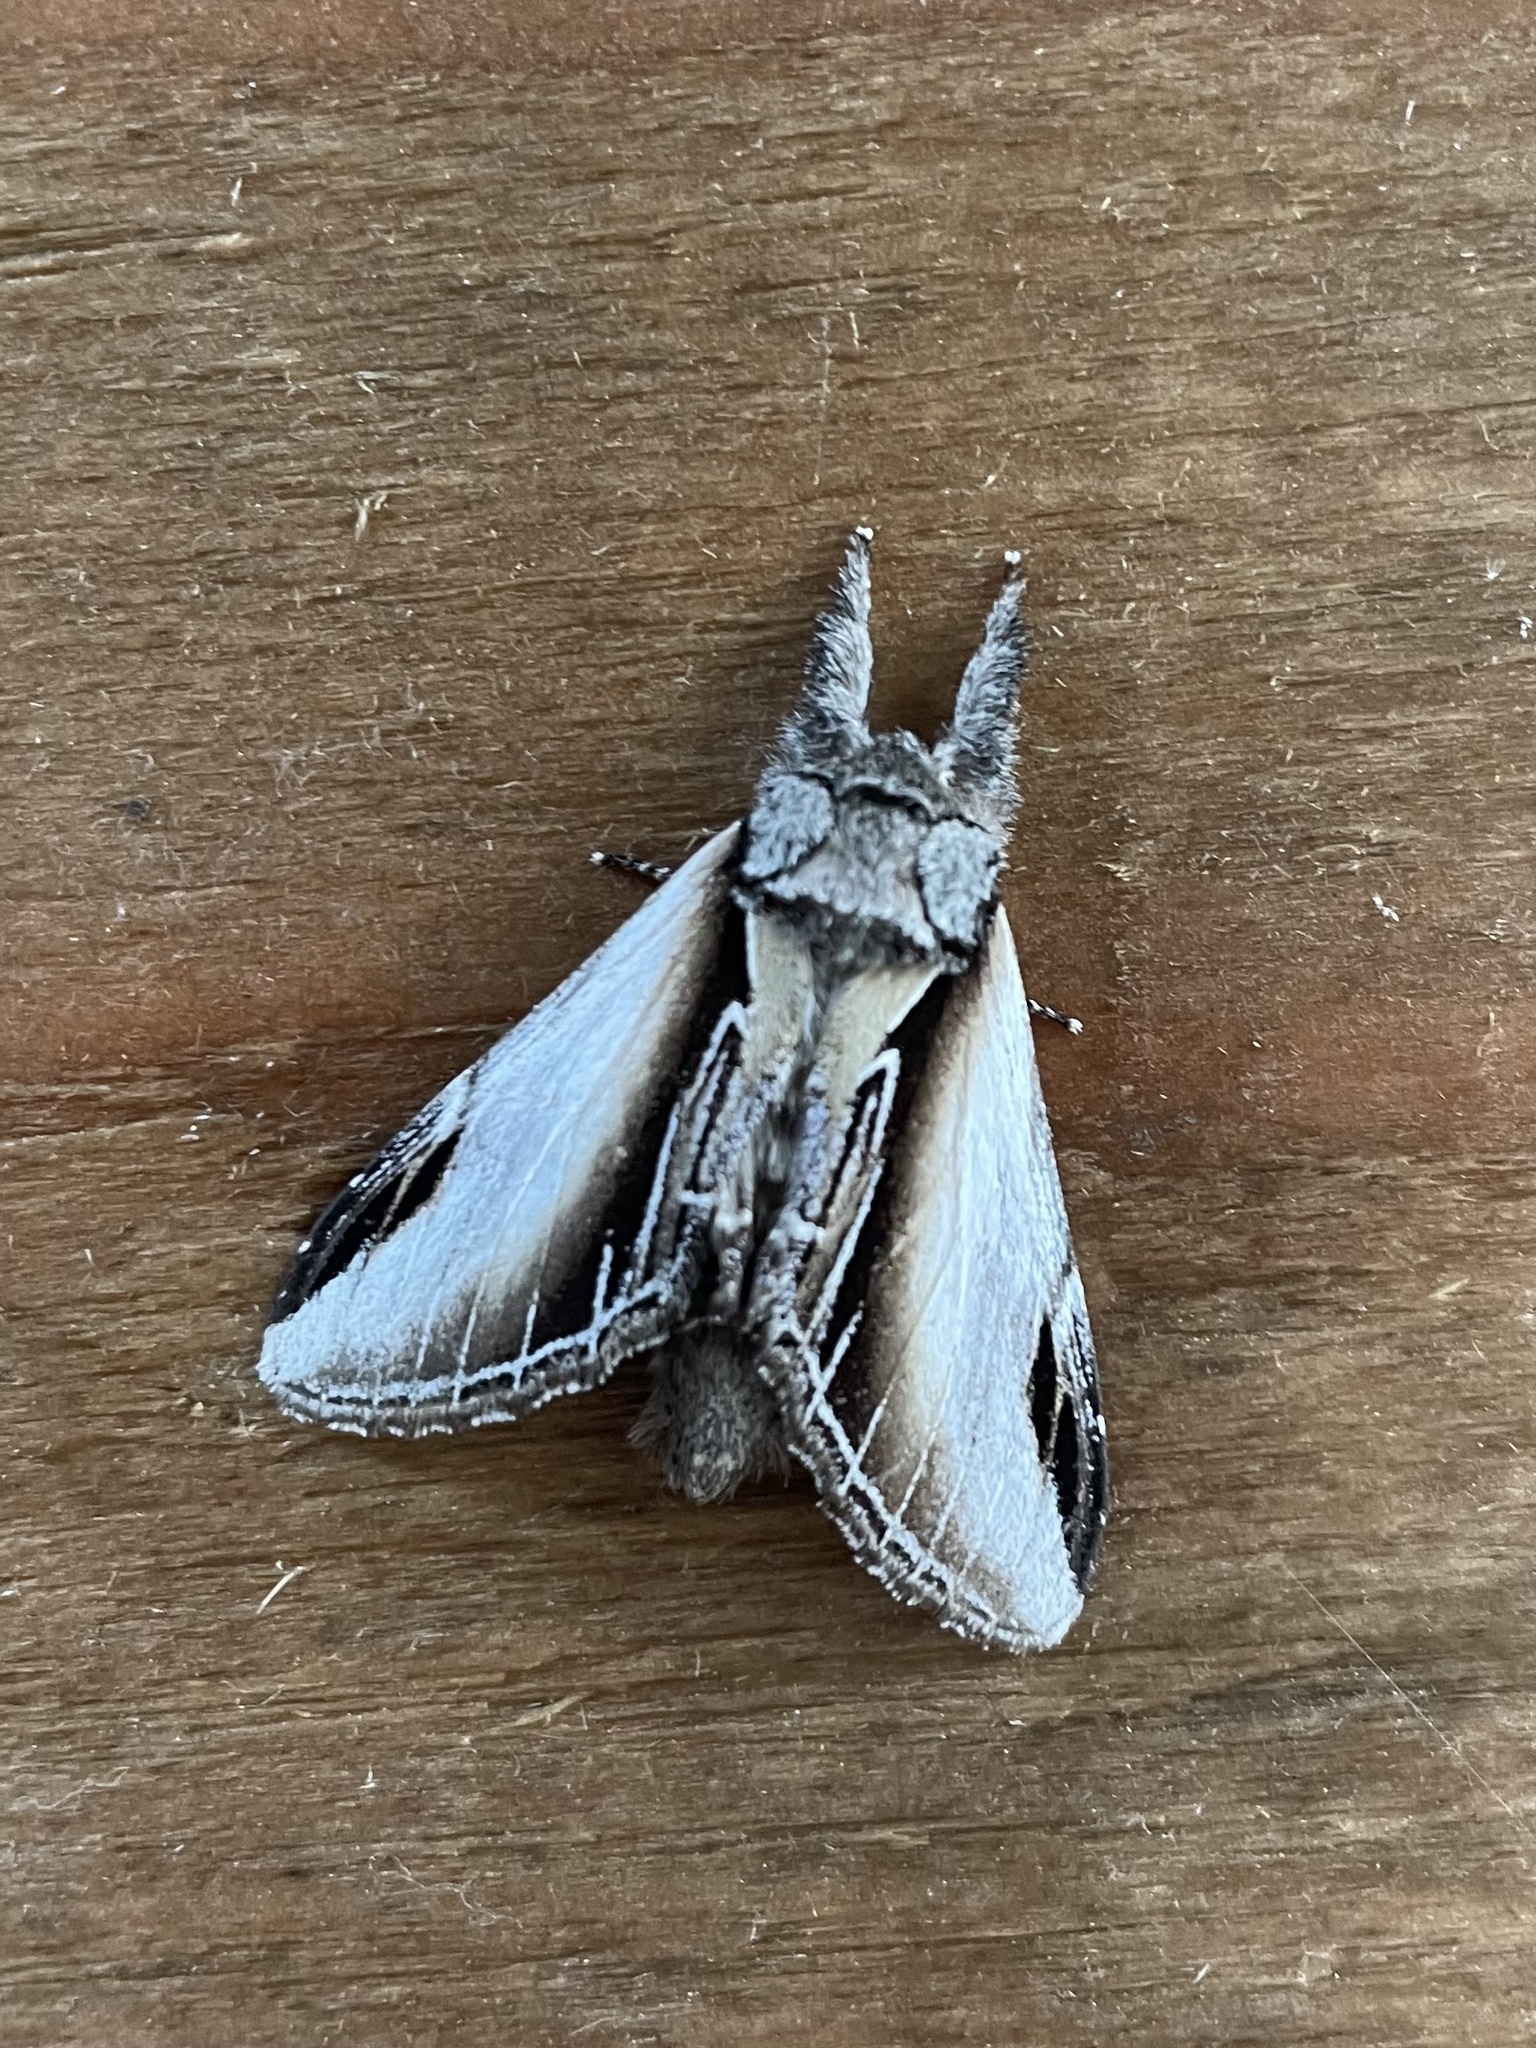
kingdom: Animalia
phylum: Arthropoda
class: Insecta
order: Lepidoptera
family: Notodontidae
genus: Pheosia
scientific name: Pheosia rimosa
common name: Black-rimmed prominent
